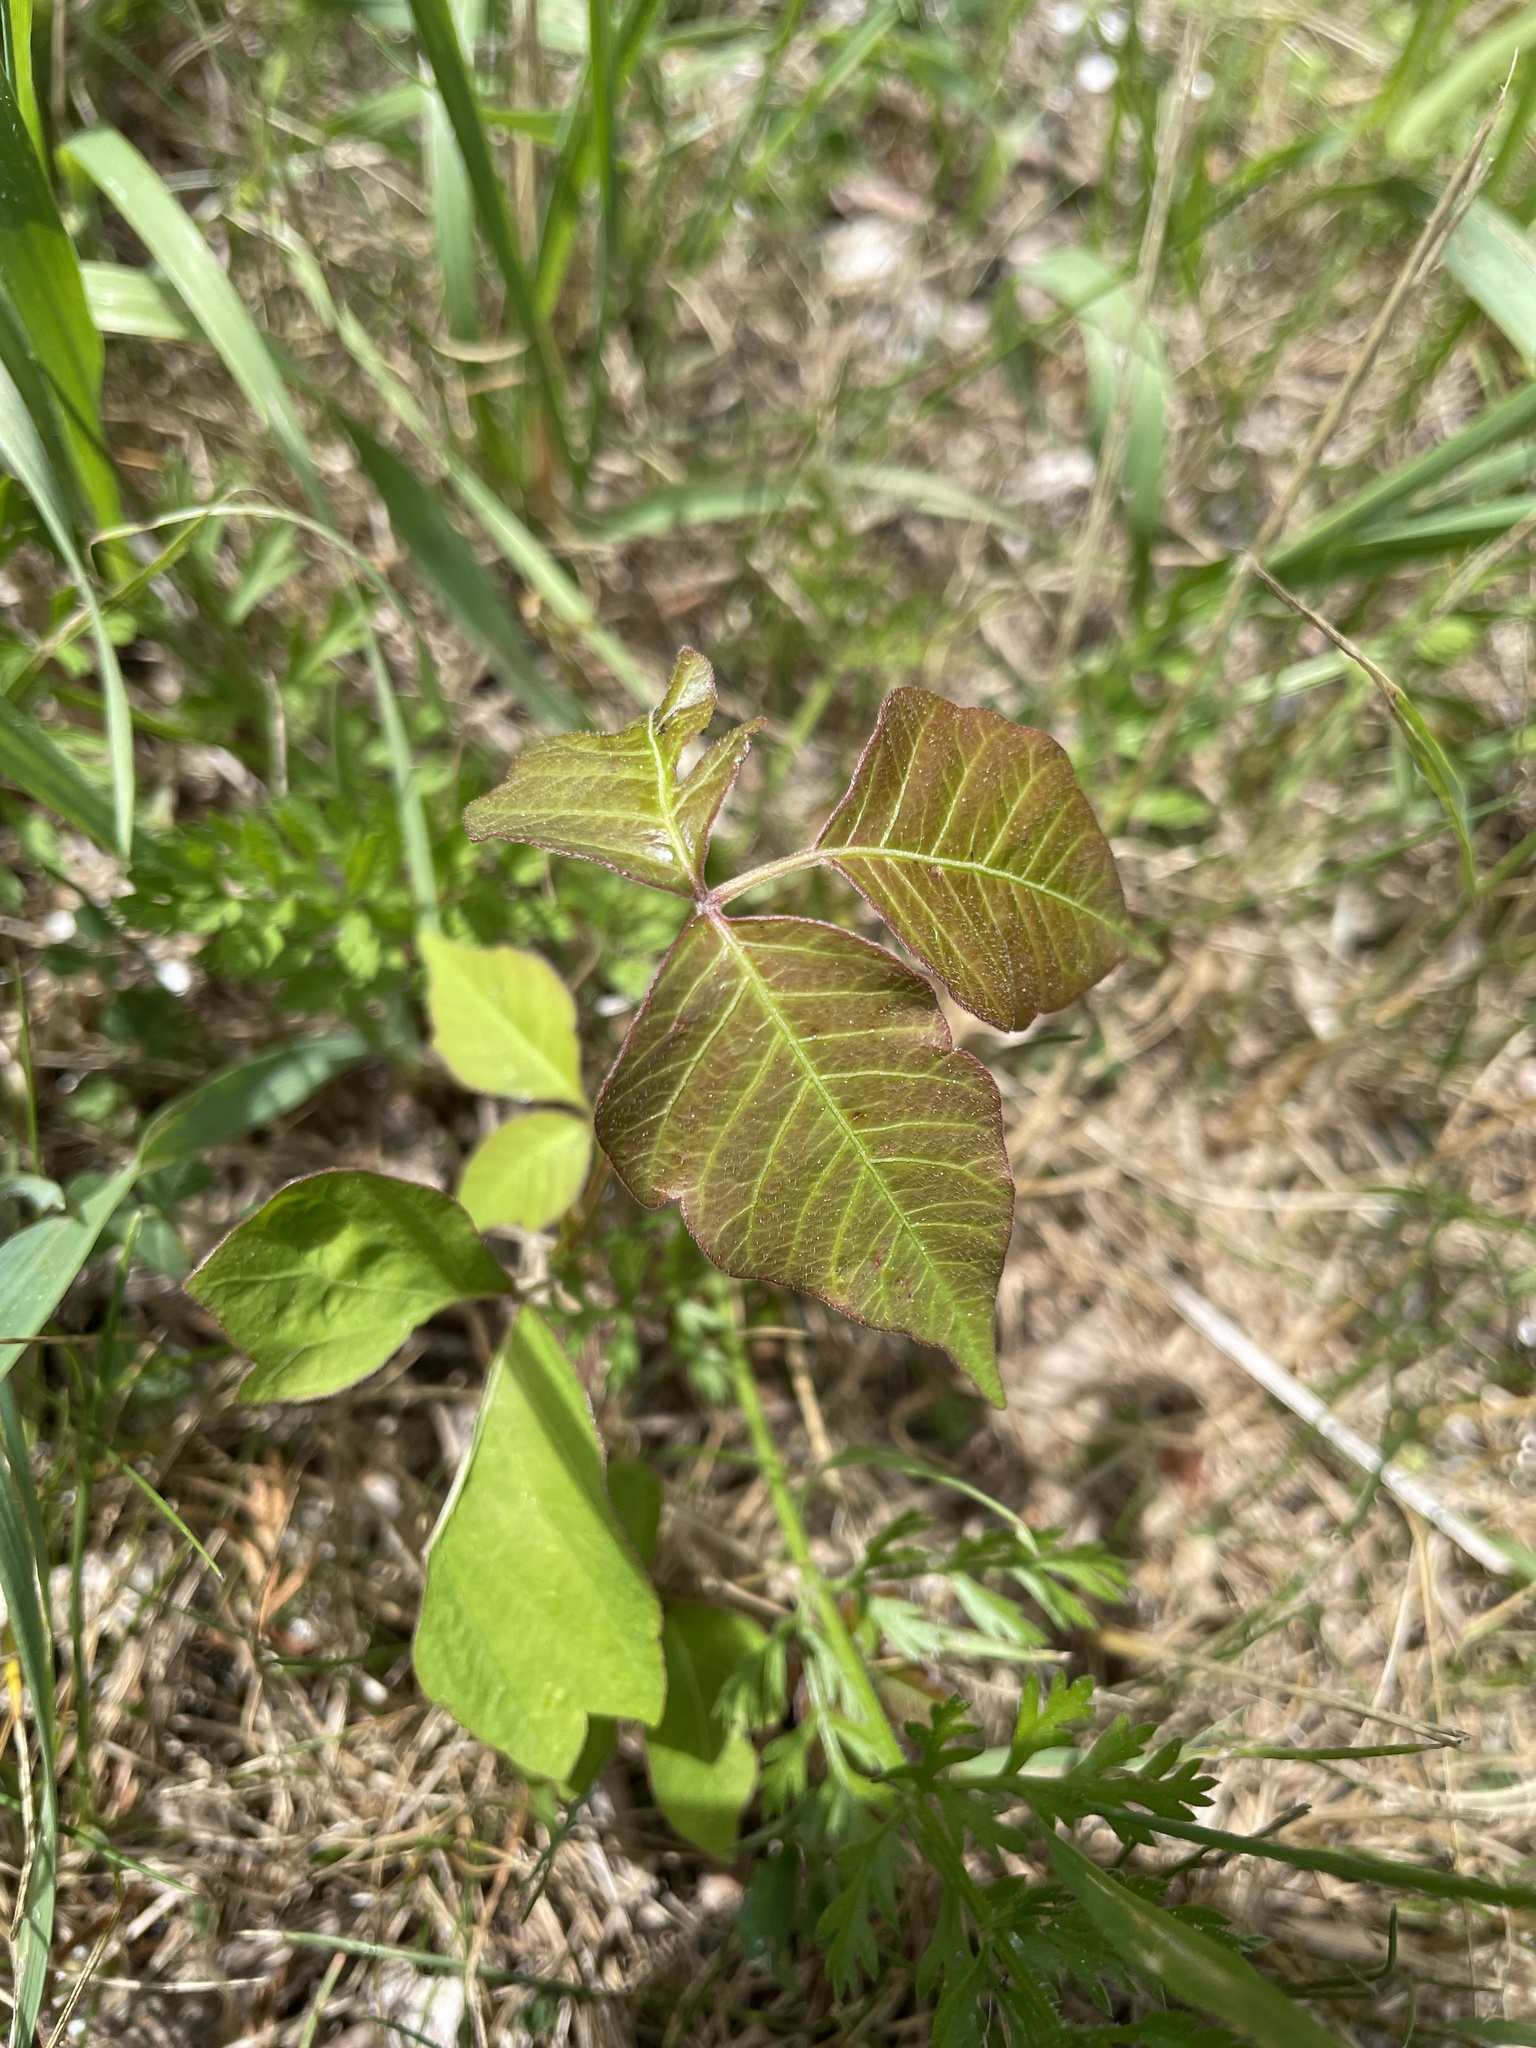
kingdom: Plantae
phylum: Tracheophyta
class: Magnoliopsida
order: Sapindales
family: Anacardiaceae
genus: Toxicodendron
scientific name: Toxicodendron radicans
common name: Poison ivy
